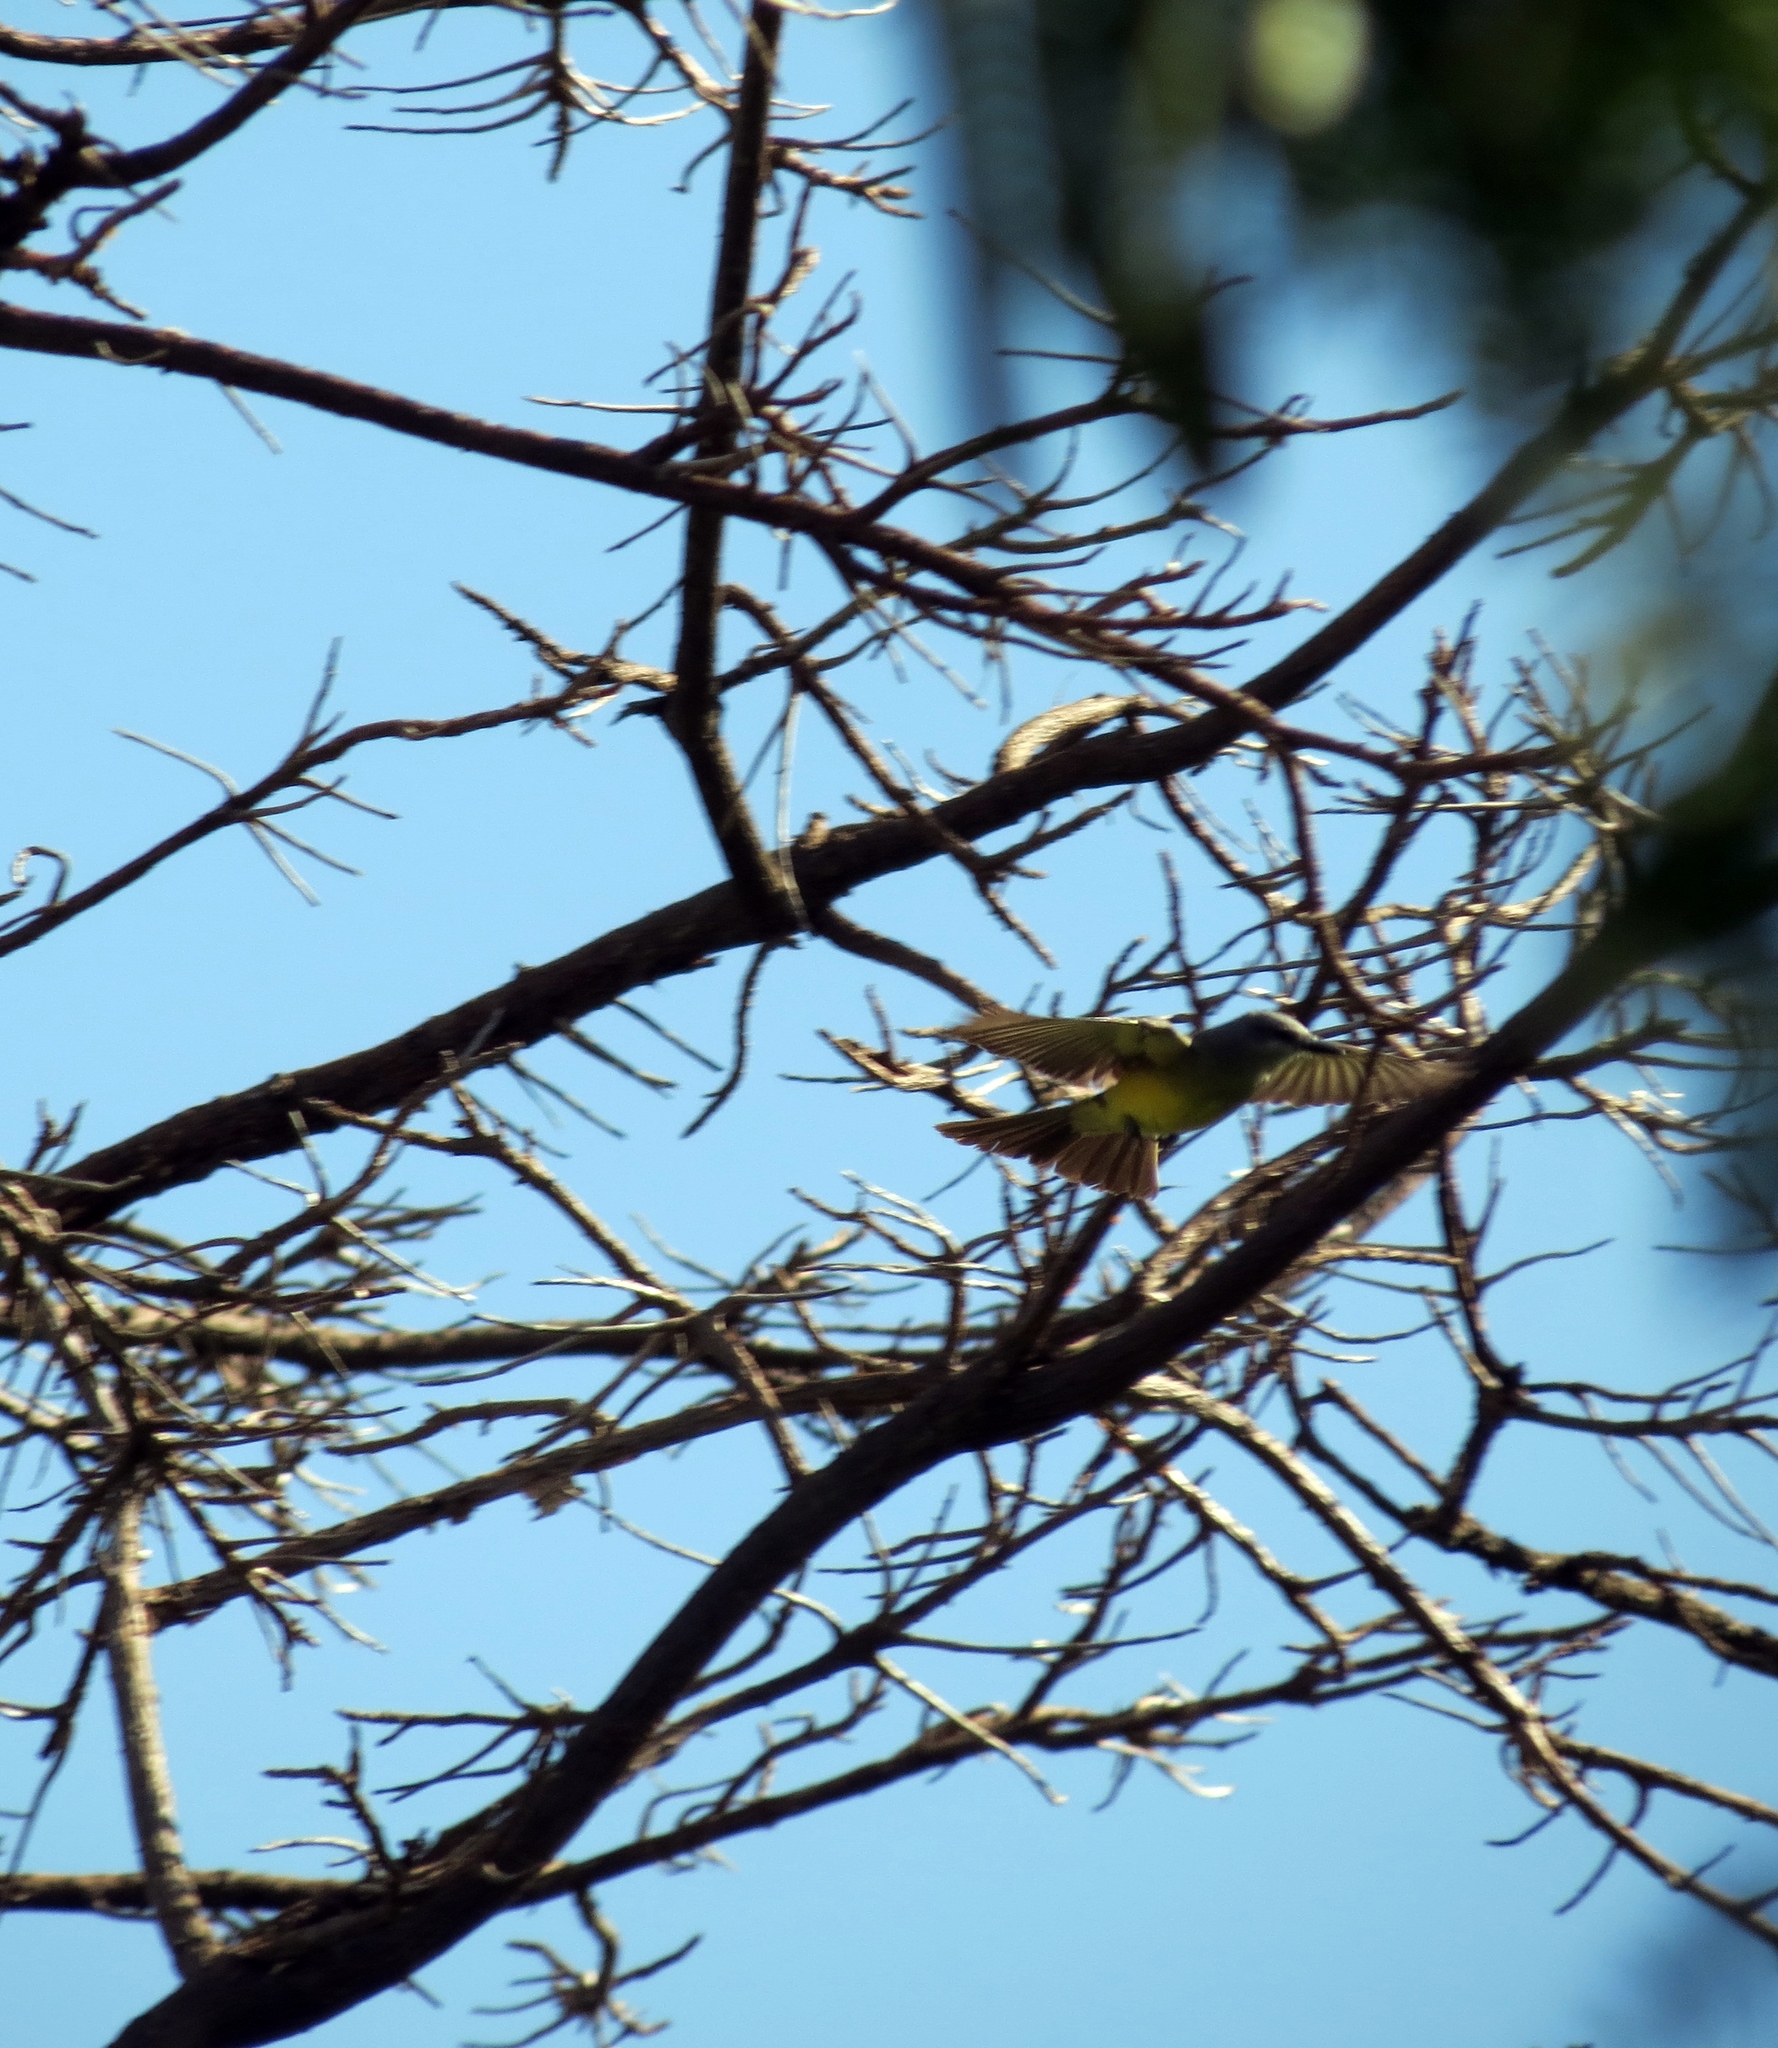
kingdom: Animalia
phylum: Chordata
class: Aves
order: Passeriformes
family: Tyrannidae
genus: Tyrannus
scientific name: Tyrannus melancholicus
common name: Tropical kingbird
